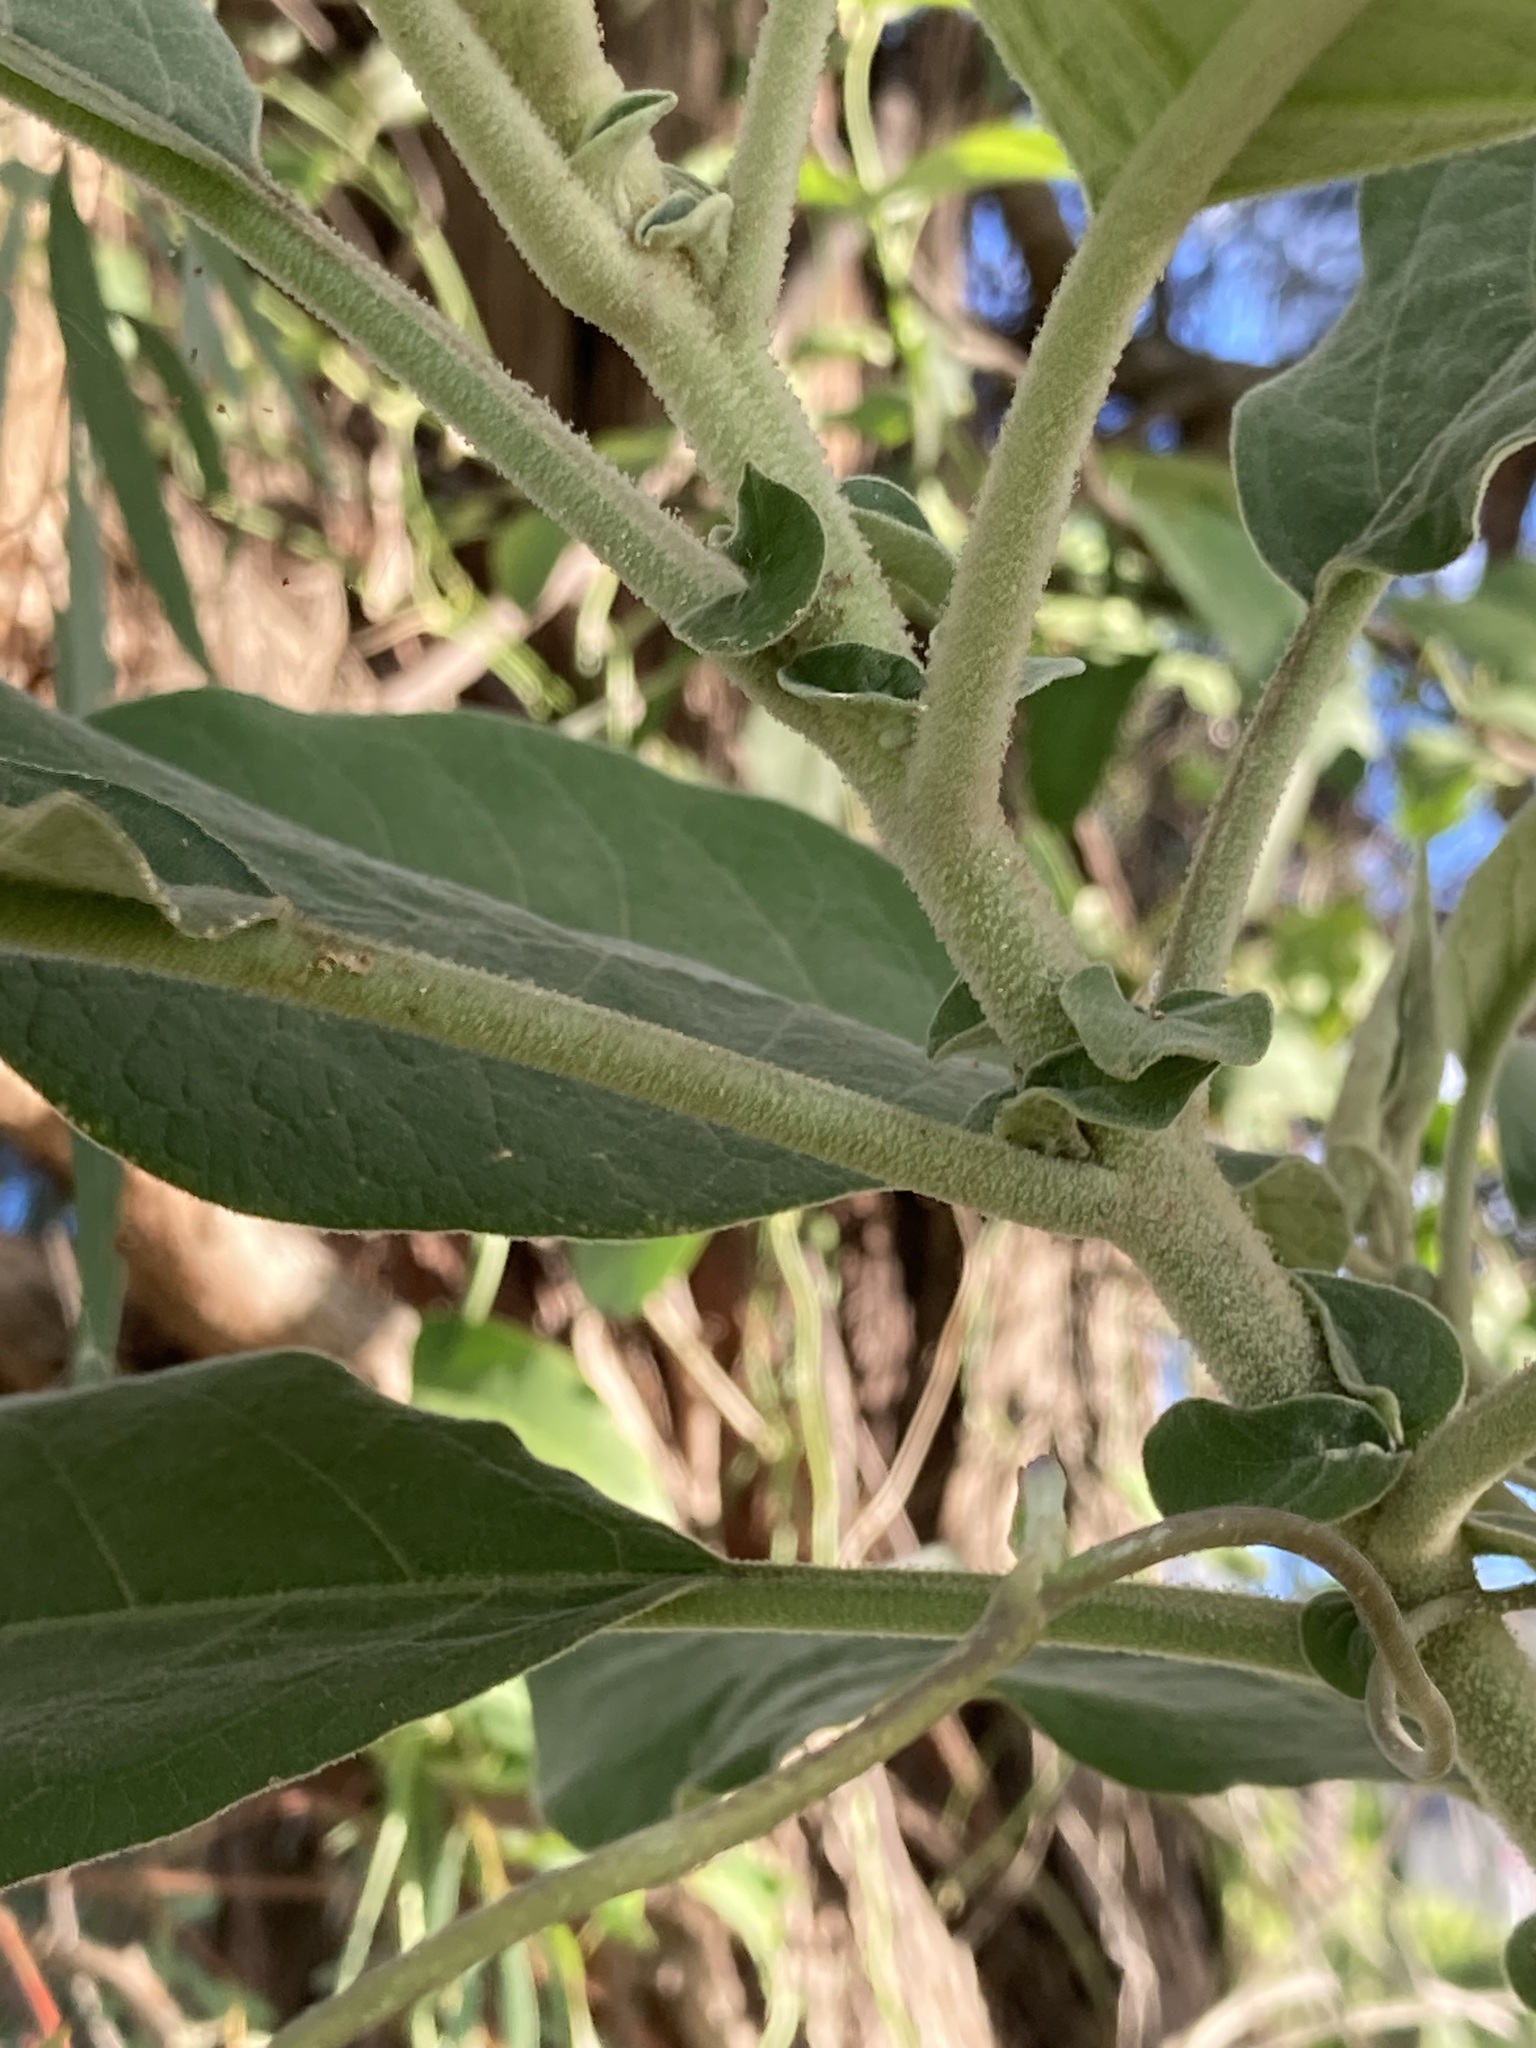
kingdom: Plantae
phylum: Tracheophyta
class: Magnoliopsida
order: Solanales
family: Solanaceae
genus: Solanum
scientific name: Solanum mauritianum
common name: Earleaf nightshade
